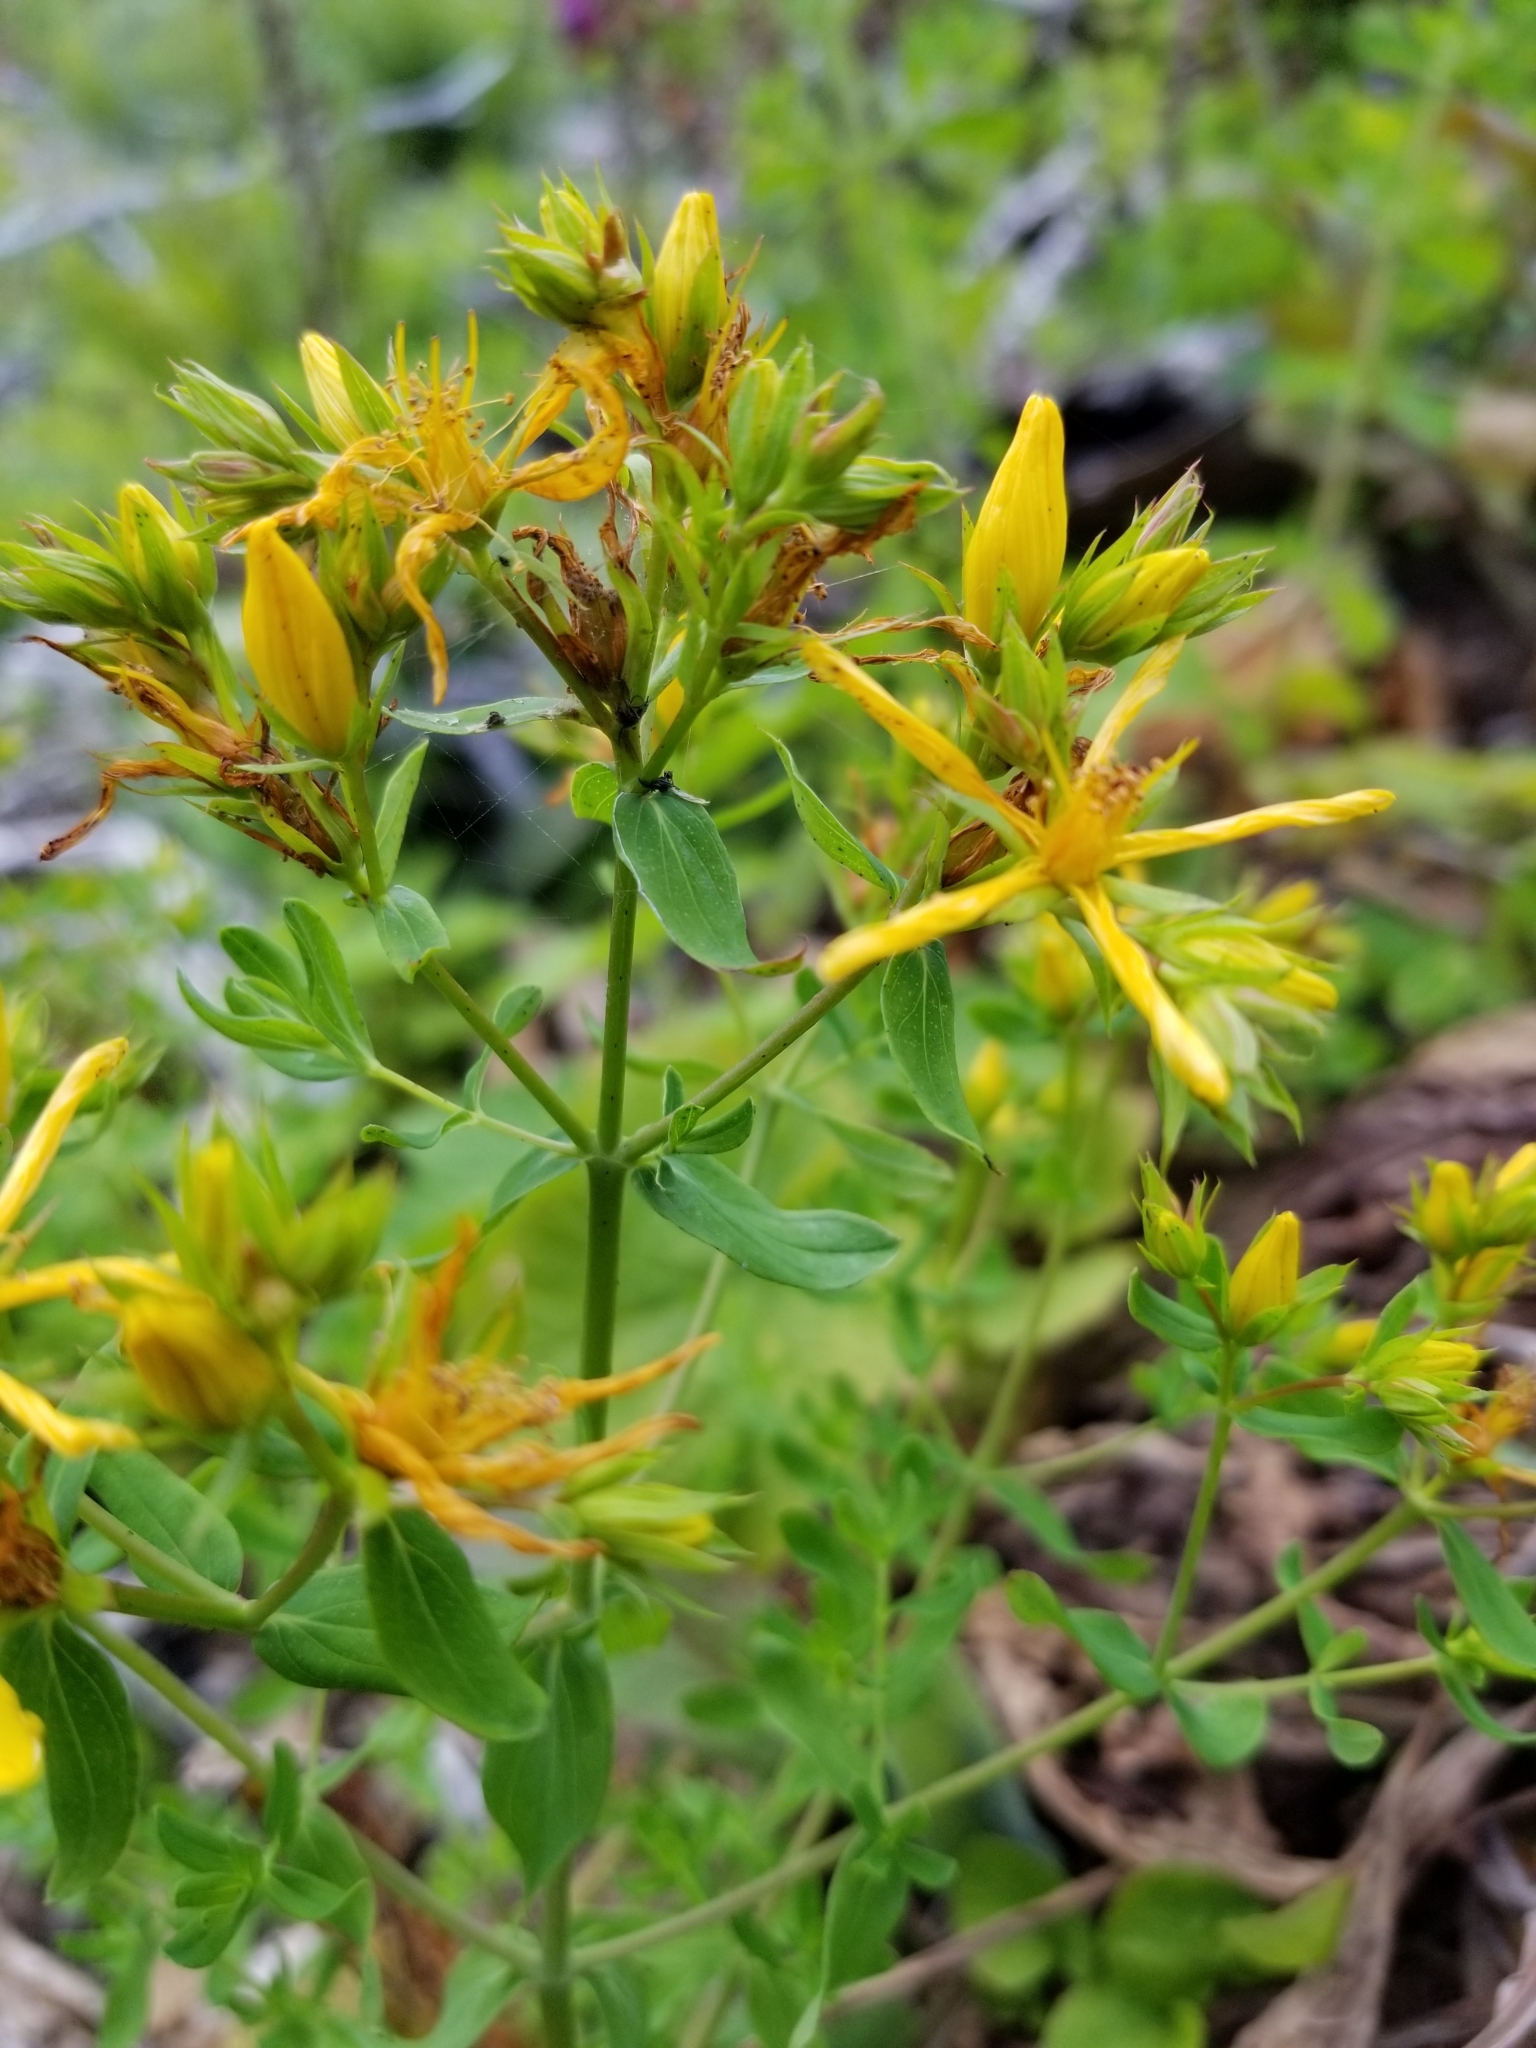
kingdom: Plantae
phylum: Tracheophyta
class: Magnoliopsida
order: Malpighiales
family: Hypericaceae
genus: Hypericum
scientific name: Hypericum perforatum
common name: Common st. johnswort
